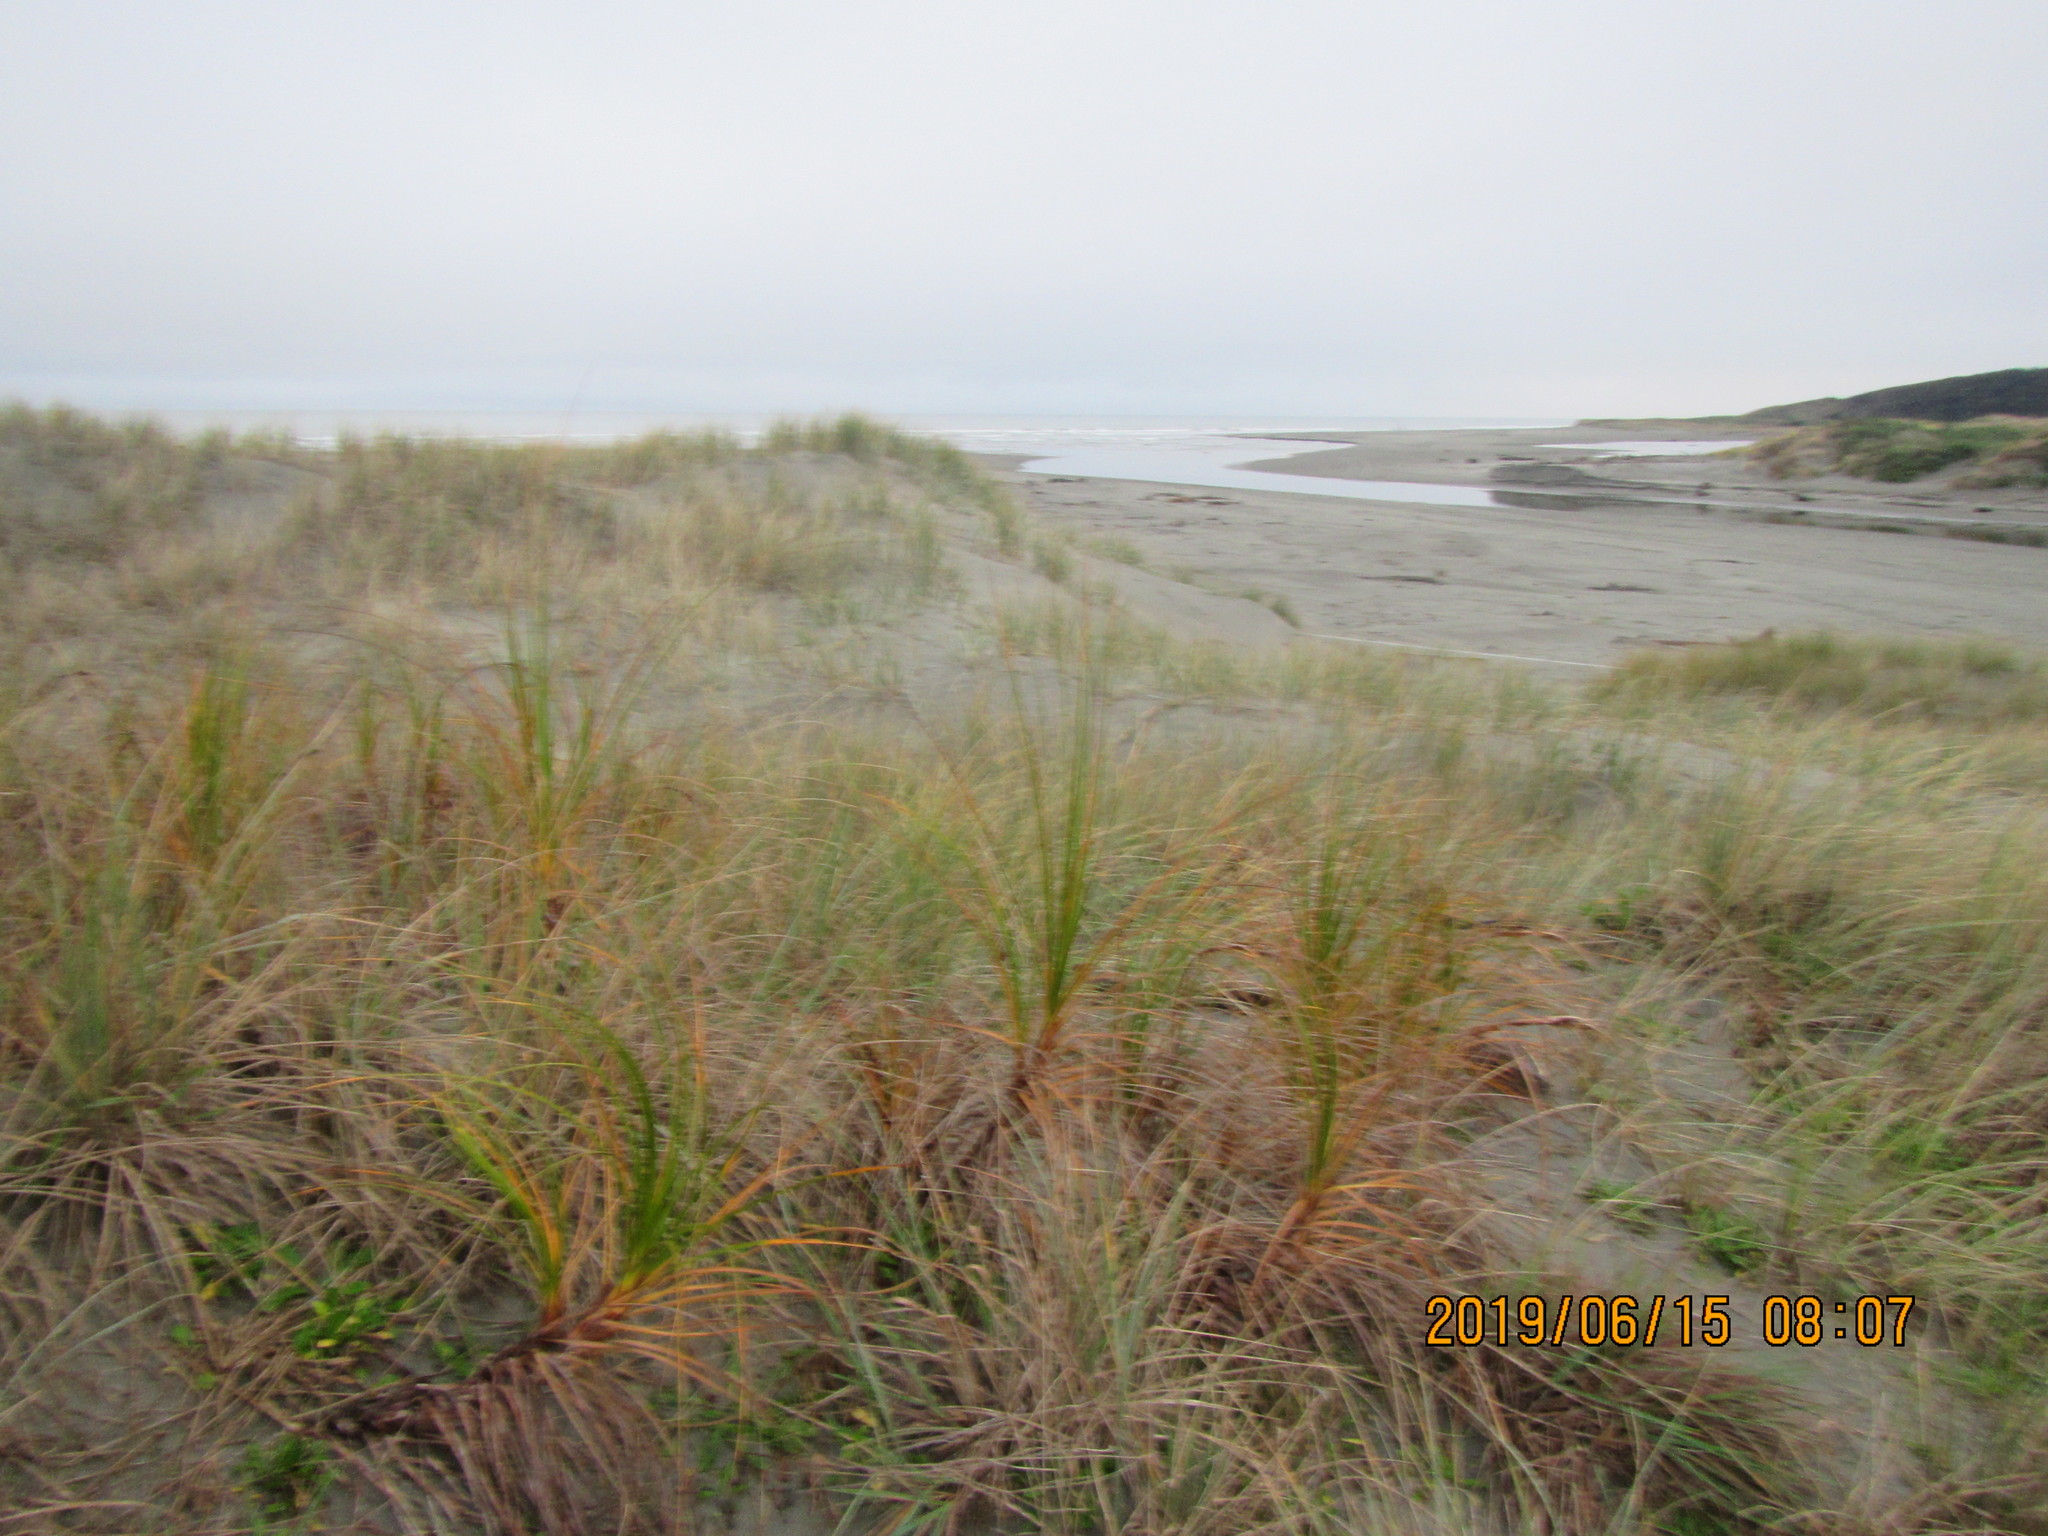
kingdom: Plantae
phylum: Tracheophyta
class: Liliopsida
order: Poales
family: Cyperaceae
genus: Ficinia
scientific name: Ficinia spiralis
